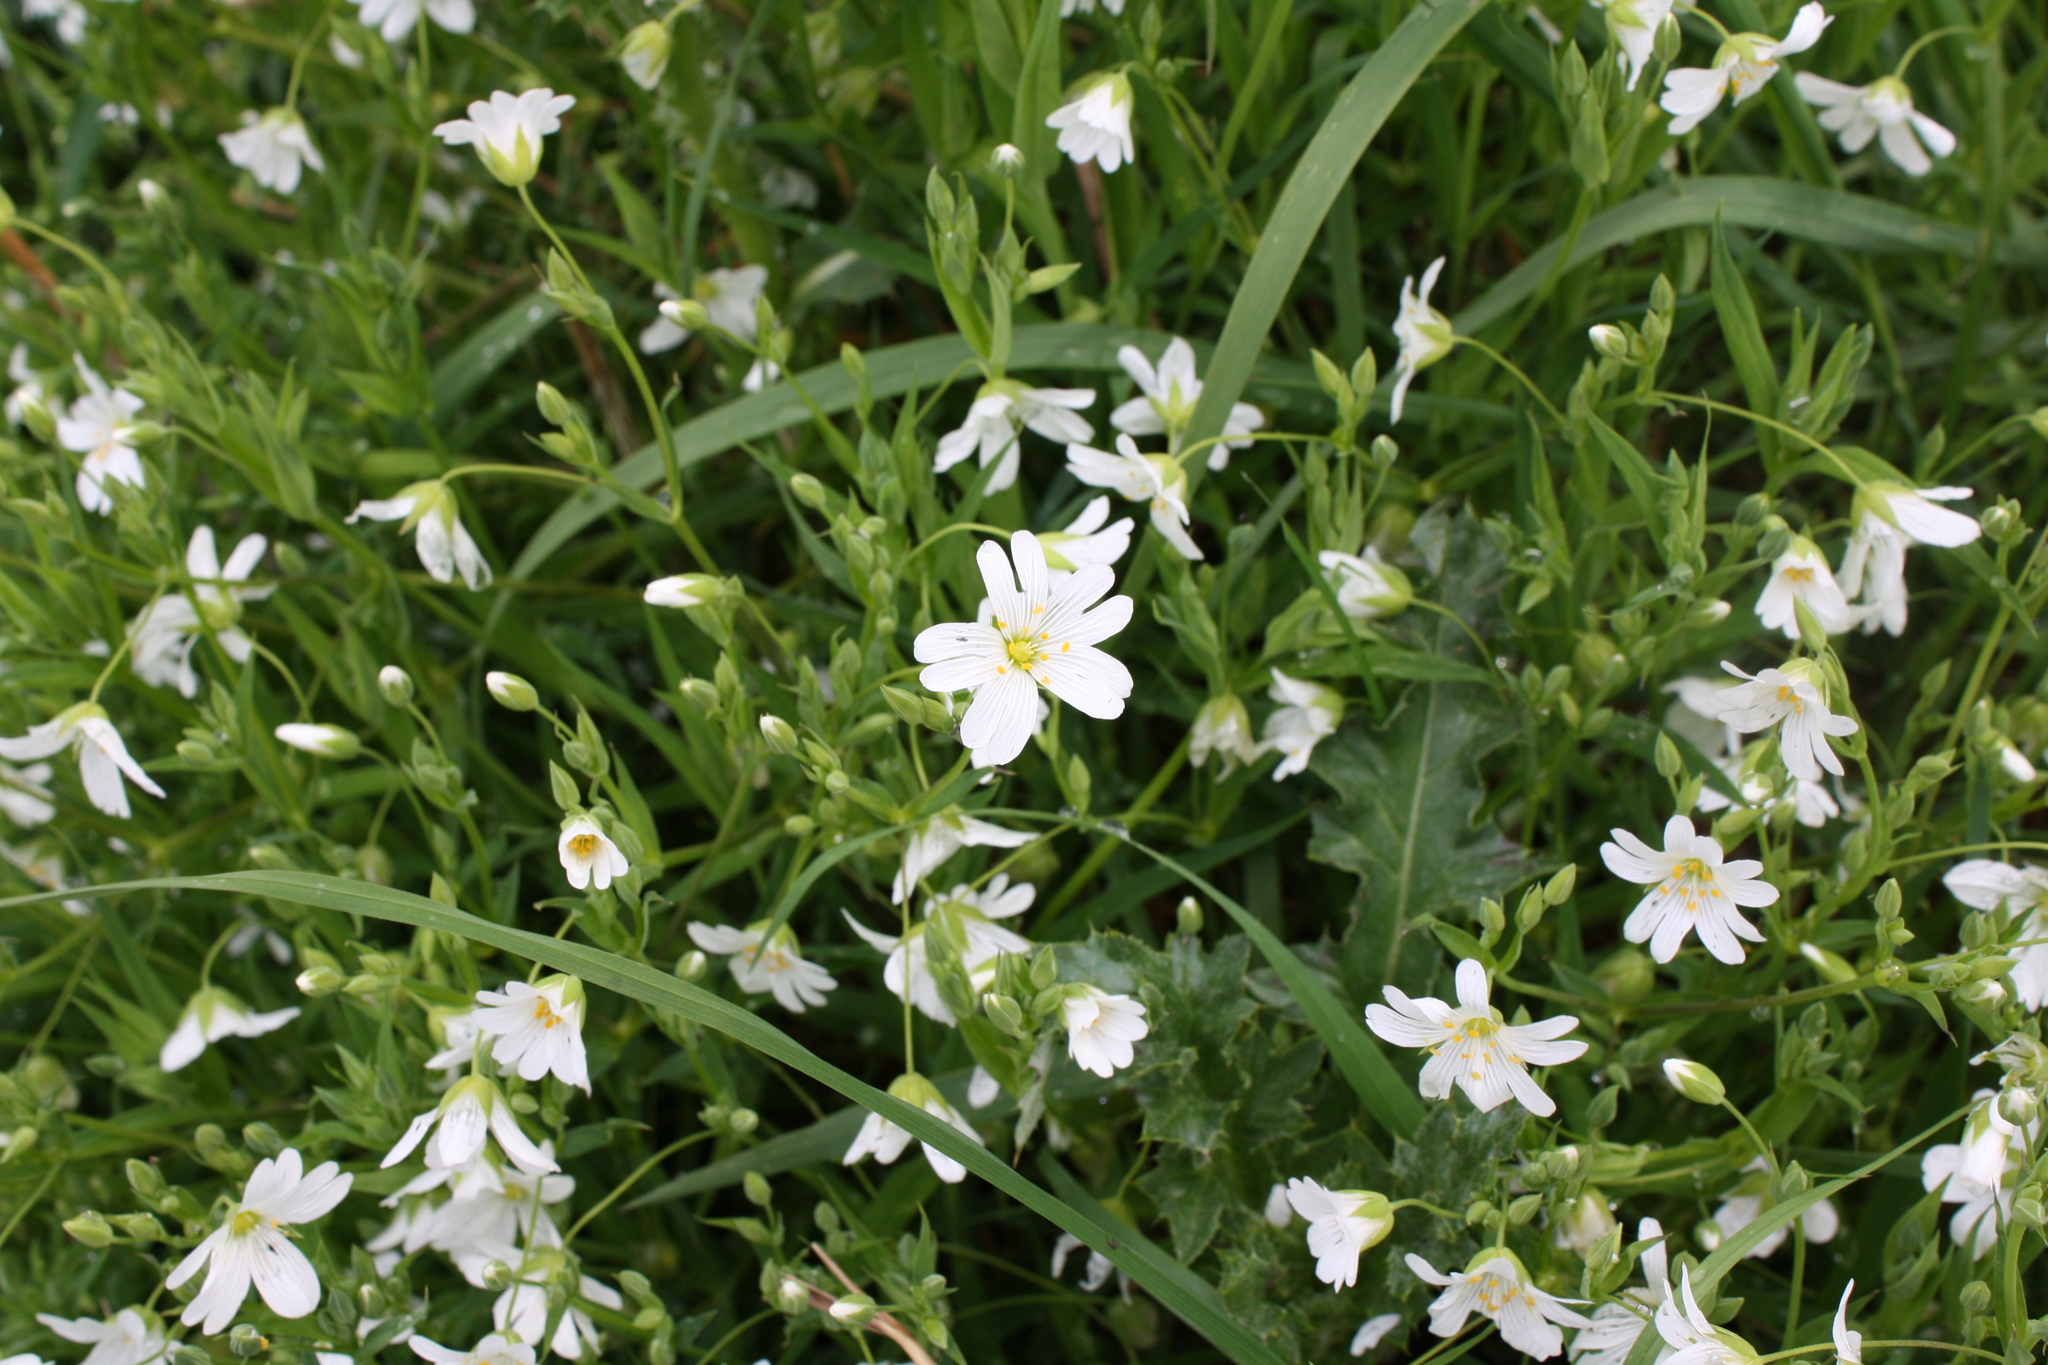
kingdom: Plantae
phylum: Tracheophyta
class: Magnoliopsida
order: Caryophyllales
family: Caryophyllaceae
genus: Rabelera
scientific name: Rabelera holostea
